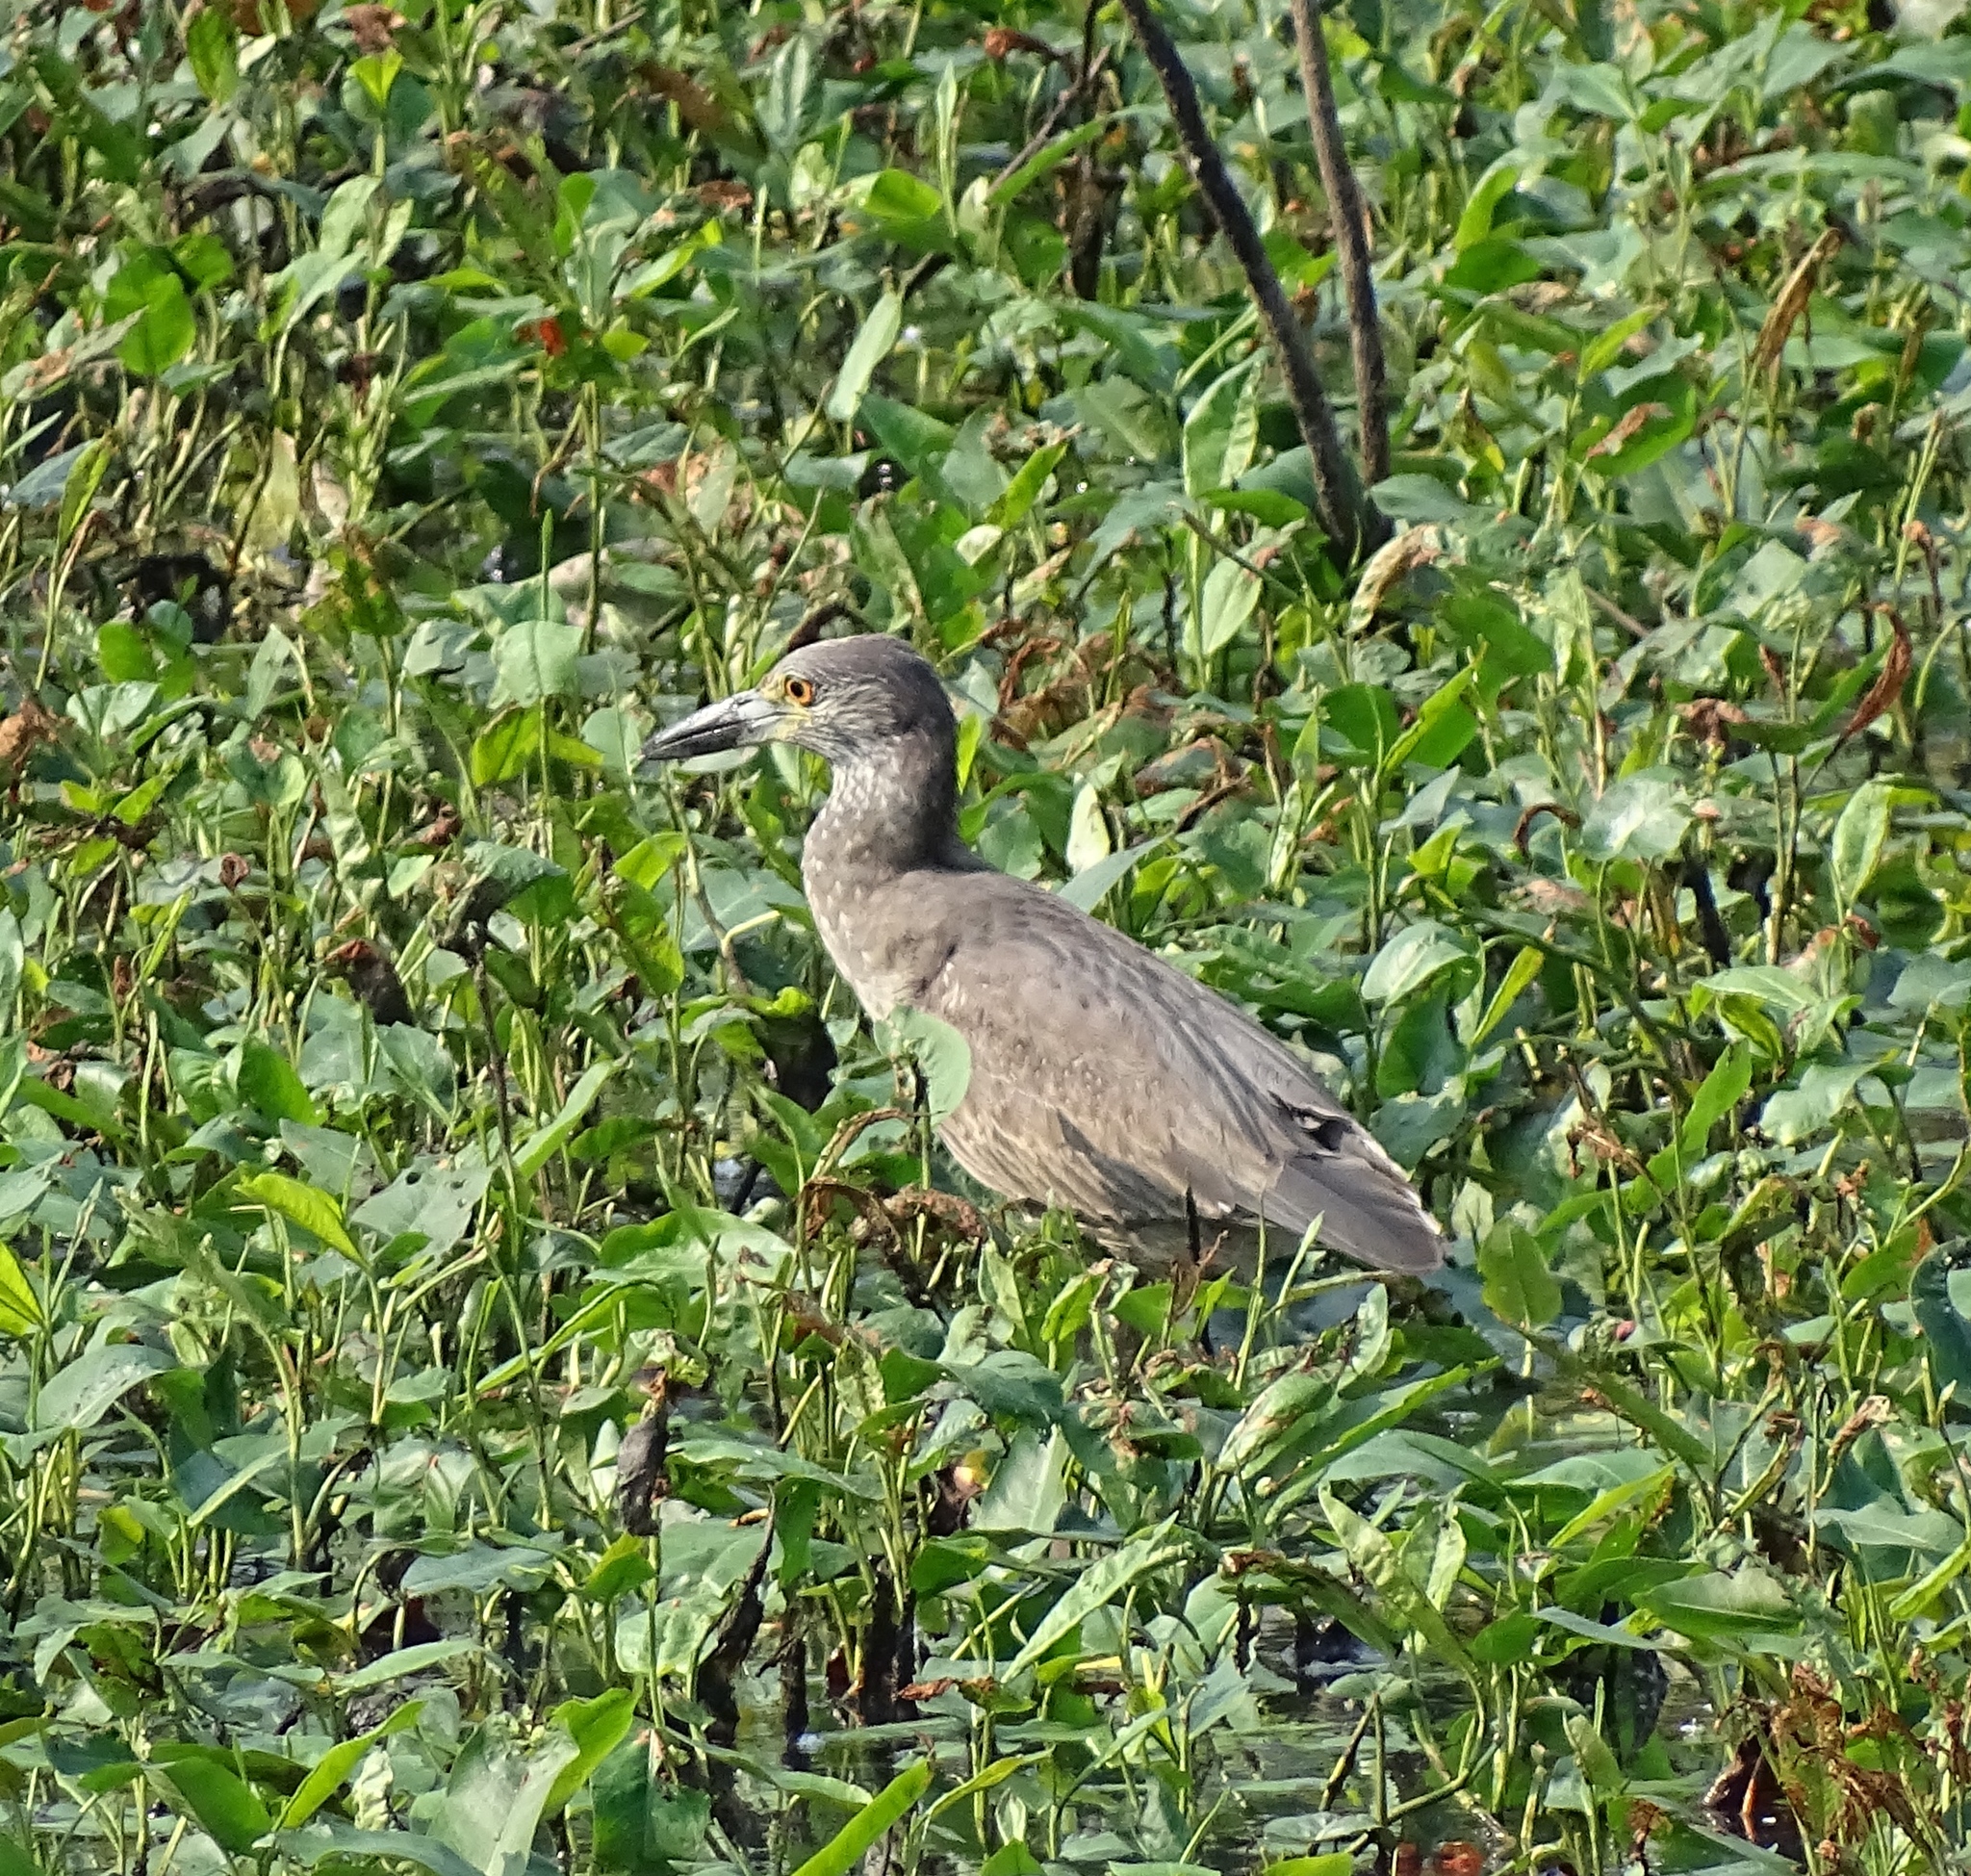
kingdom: Animalia
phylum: Chordata
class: Aves
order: Pelecaniformes
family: Ardeidae
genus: Nyctanassa
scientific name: Nyctanassa violacea
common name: Yellow-crowned night heron
